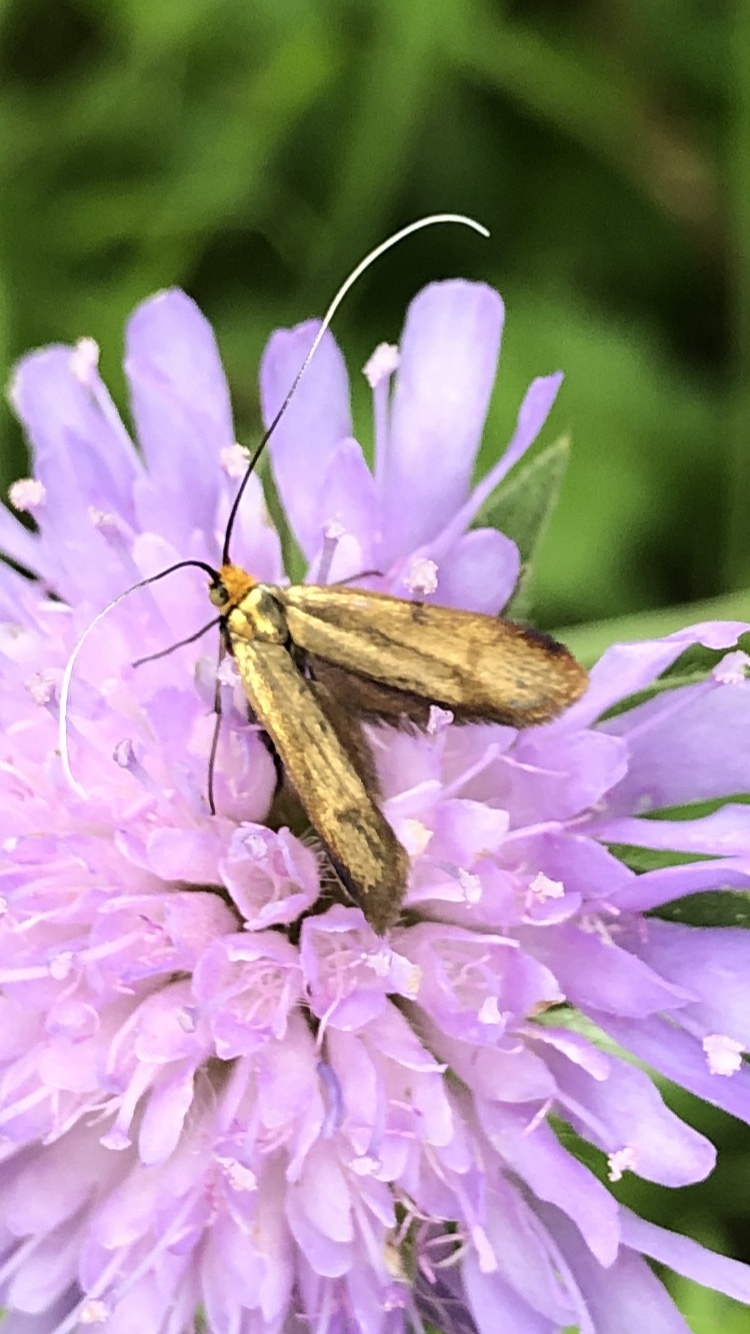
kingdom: Animalia
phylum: Arthropoda
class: Insecta
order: Lepidoptera
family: Adelidae
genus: Nemophora
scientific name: Nemophora metallica
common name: Brassy long-horn
